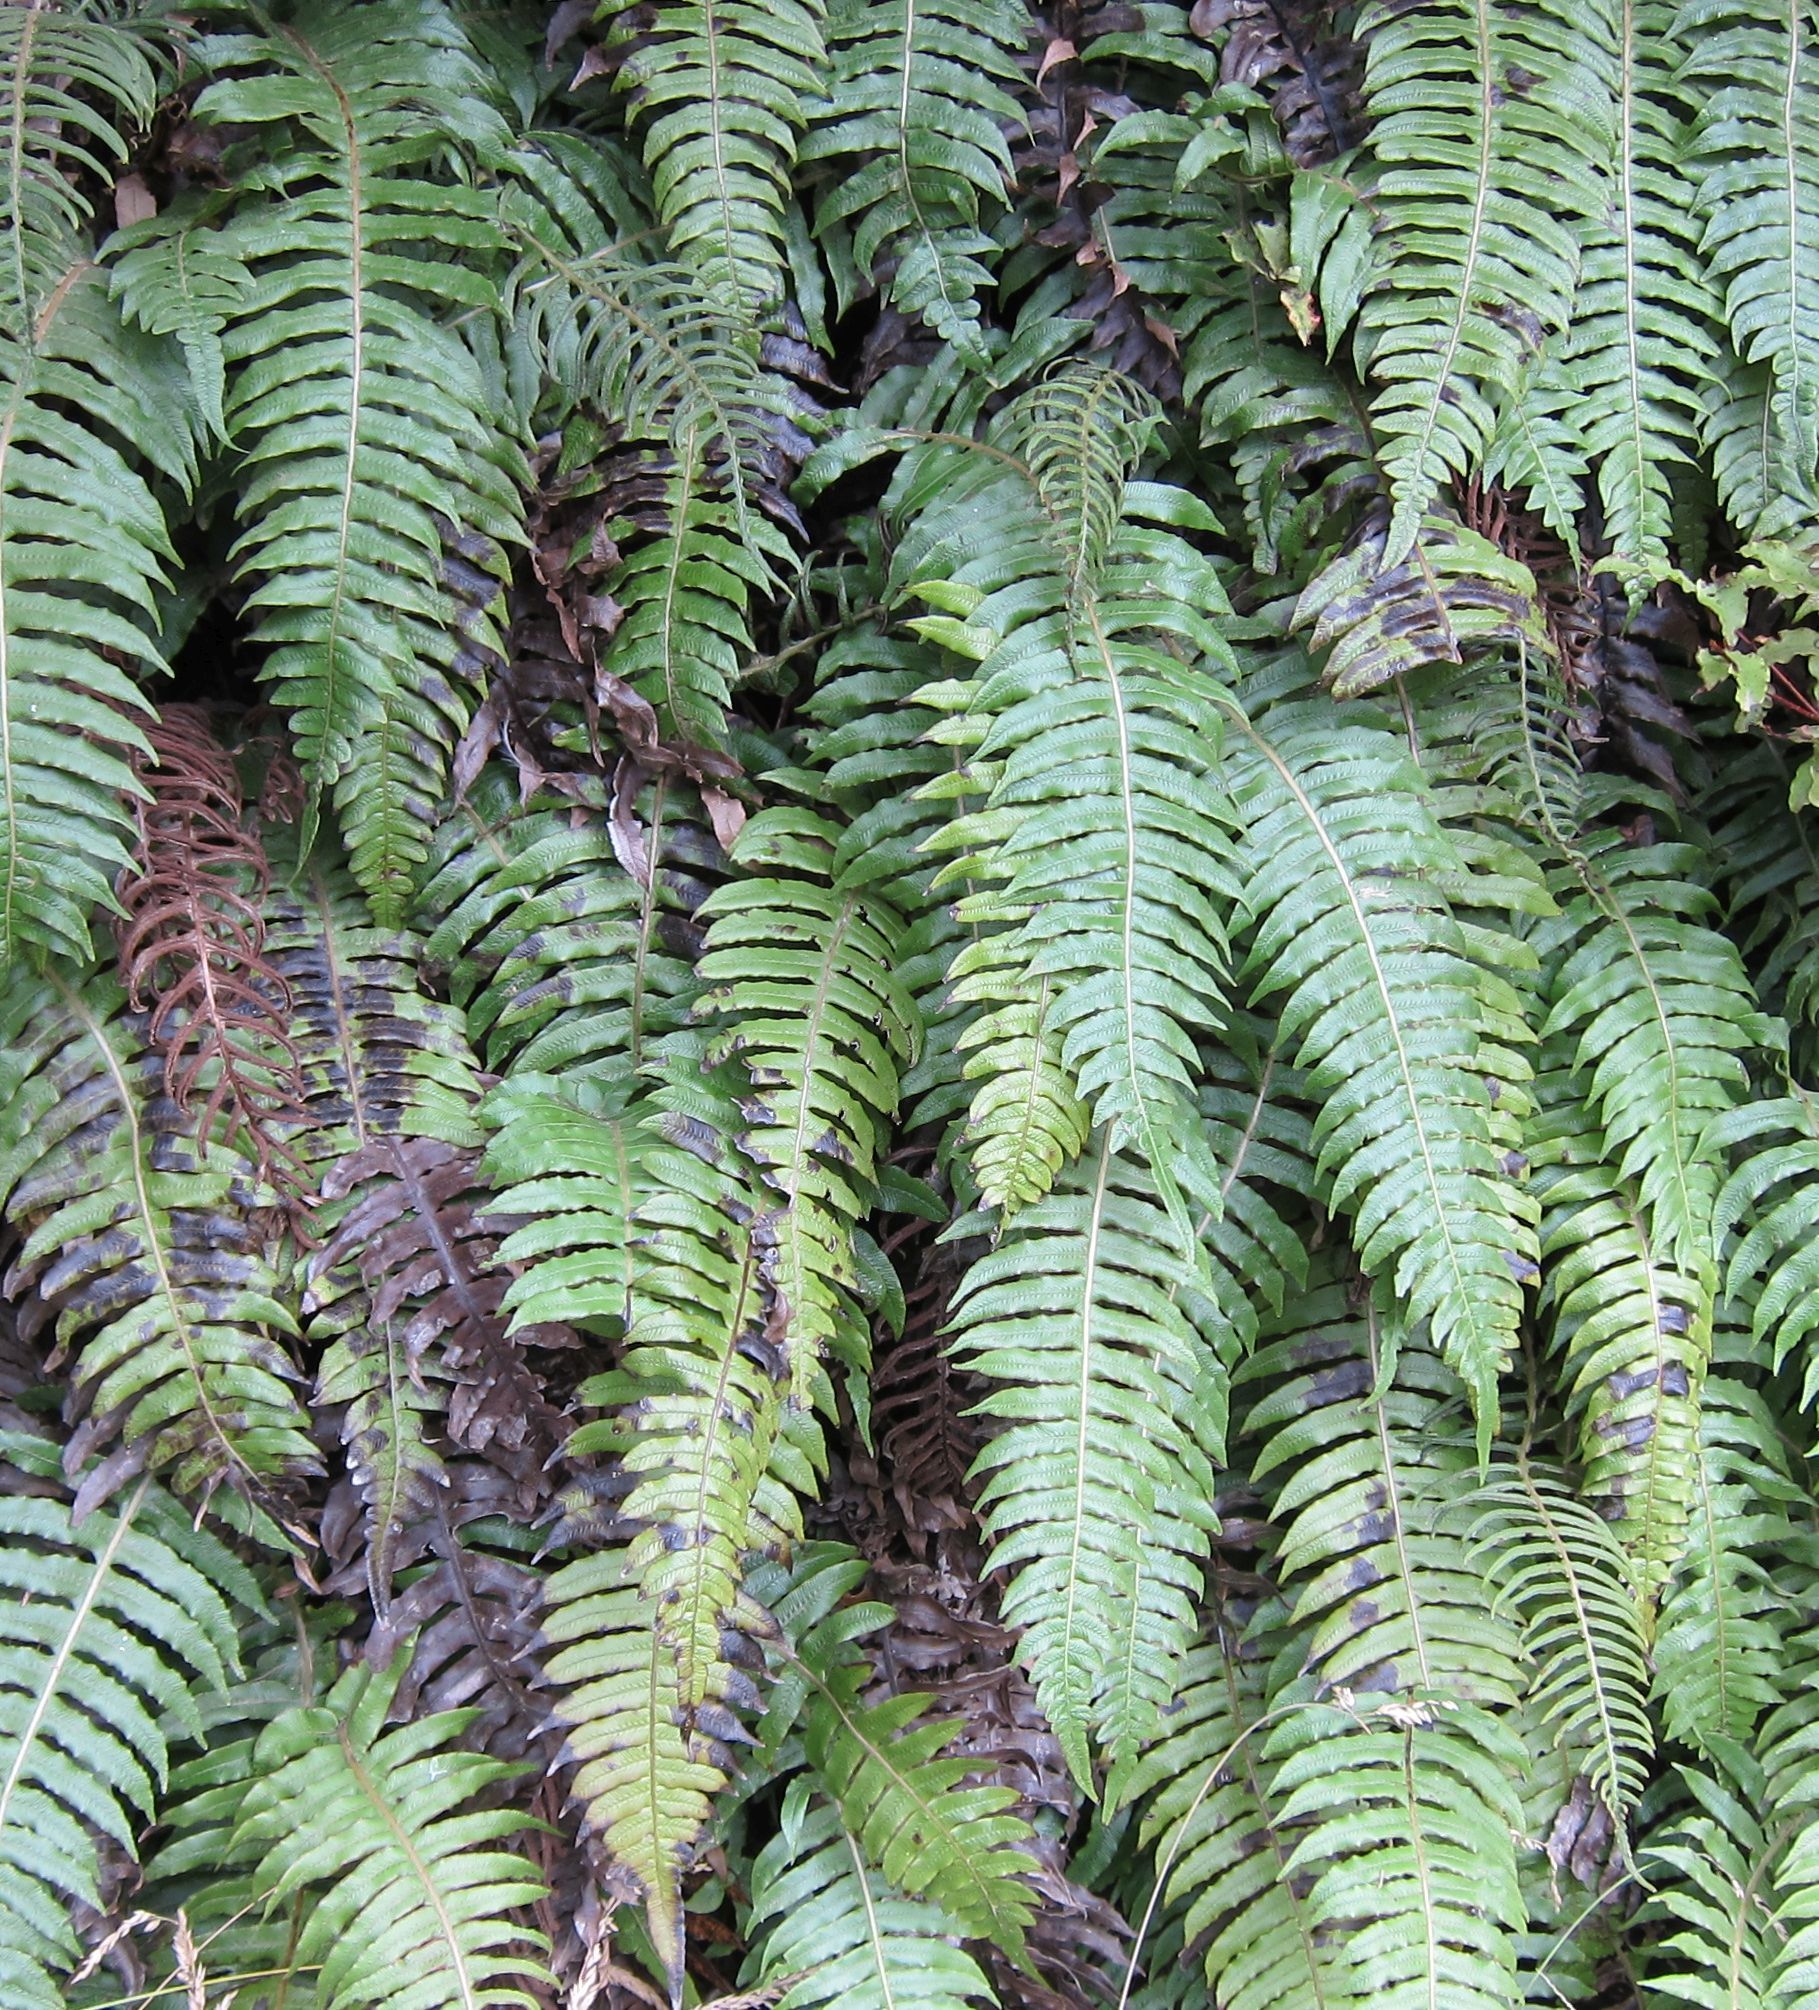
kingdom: Plantae
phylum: Tracheophyta
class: Polypodiopsida
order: Polypodiales
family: Blechnaceae
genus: Cranfillia
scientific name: Cranfillia vulcanica
